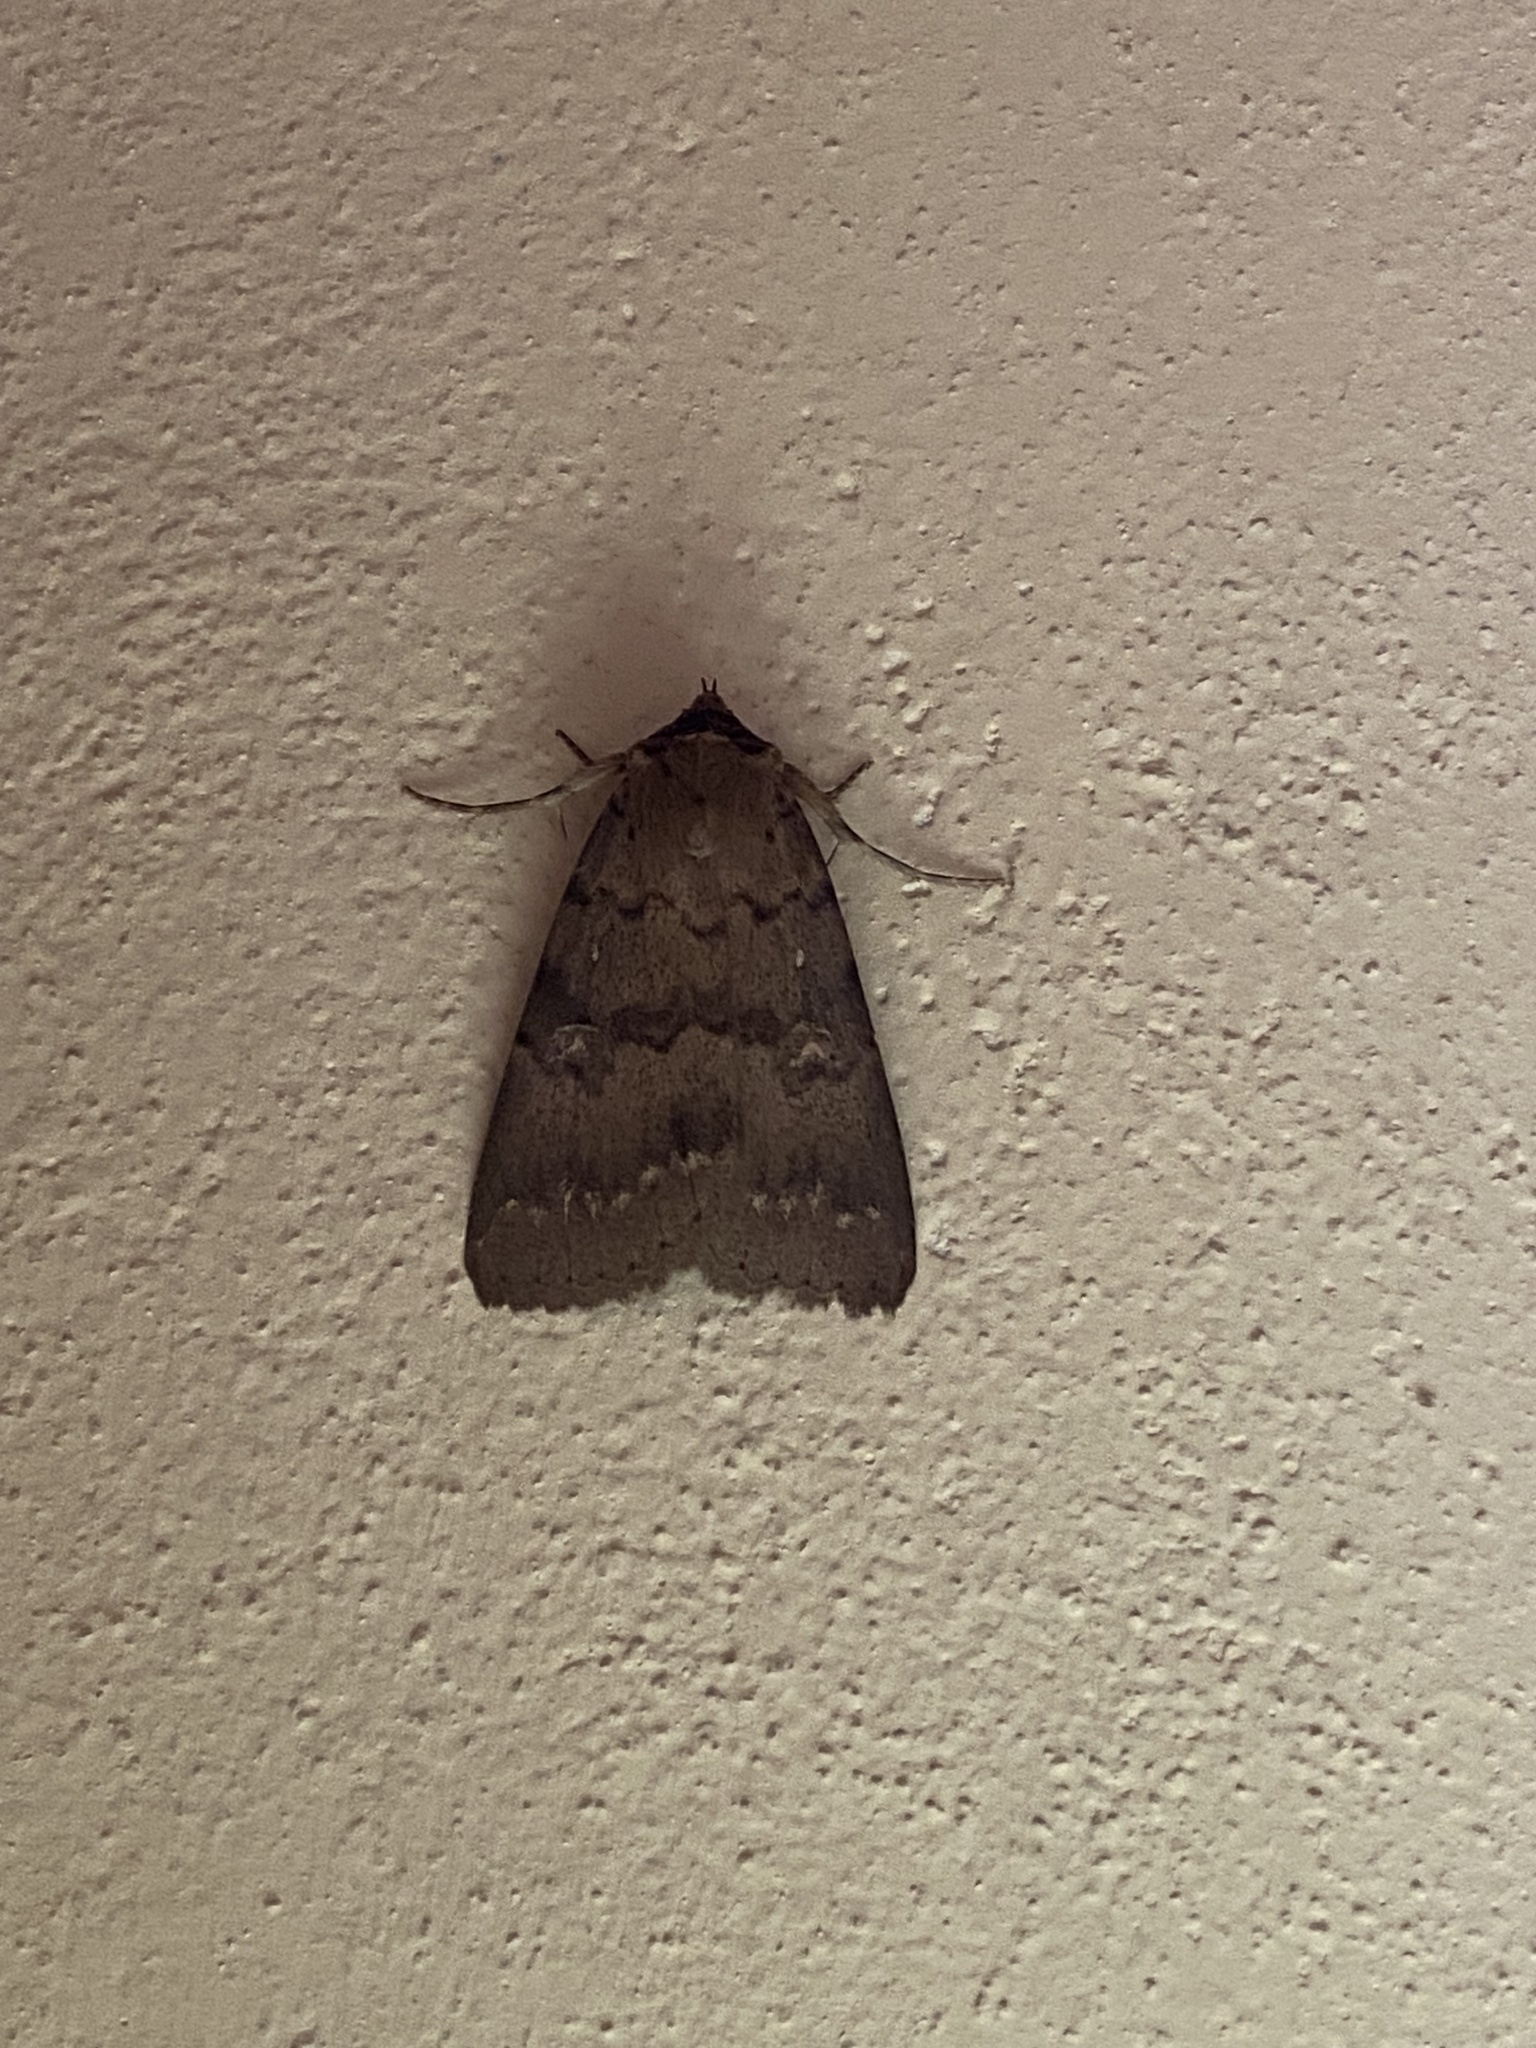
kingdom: Animalia
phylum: Arthropoda
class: Insecta
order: Lepidoptera
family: Erebidae
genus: Apopestes
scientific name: Apopestes spectrum
